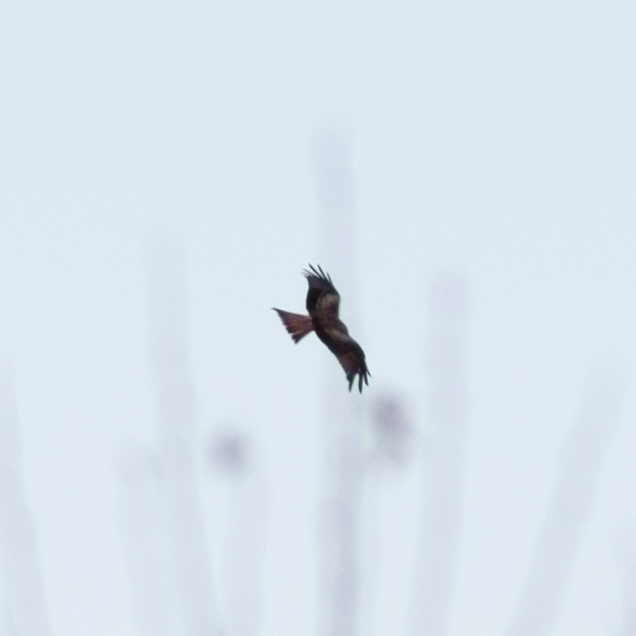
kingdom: Animalia
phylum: Chordata
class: Aves
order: Accipitriformes
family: Accipitridae
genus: Milvus
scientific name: Milvus milvus
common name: Red kite
